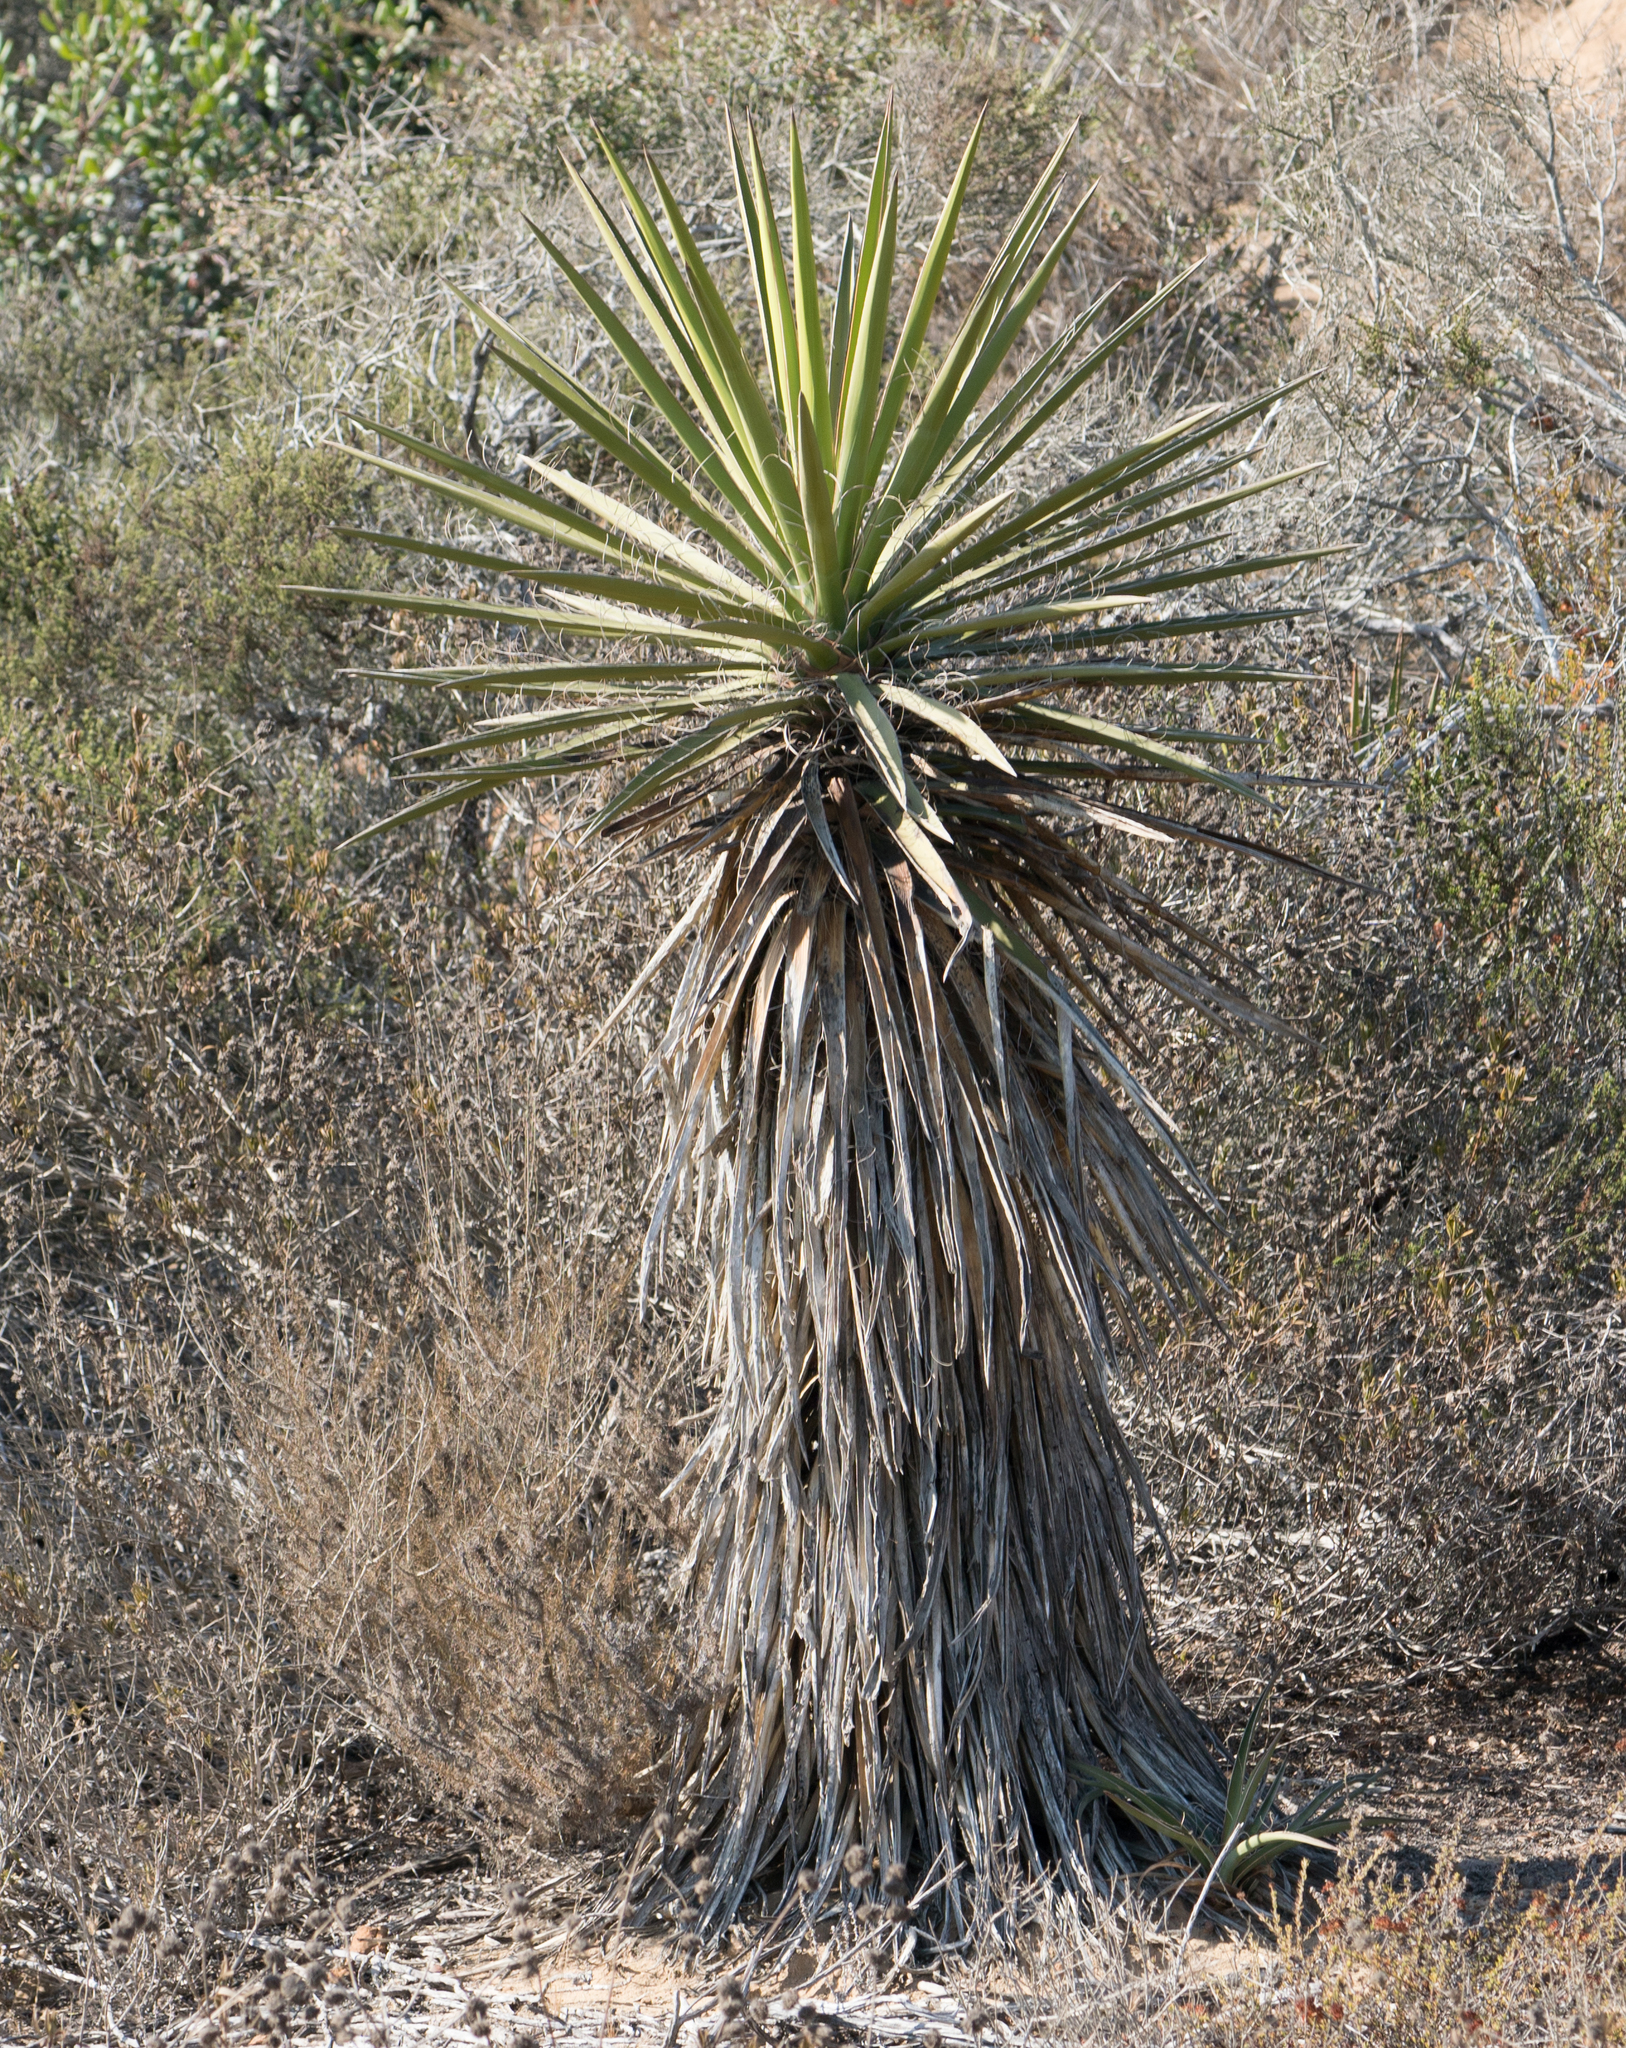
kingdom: Plantae
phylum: Tracheophyta
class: Liliopsida
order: Asparagales
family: Asparagaceae
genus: Yucca
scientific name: Yucca schidigera
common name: Mojave yucca
